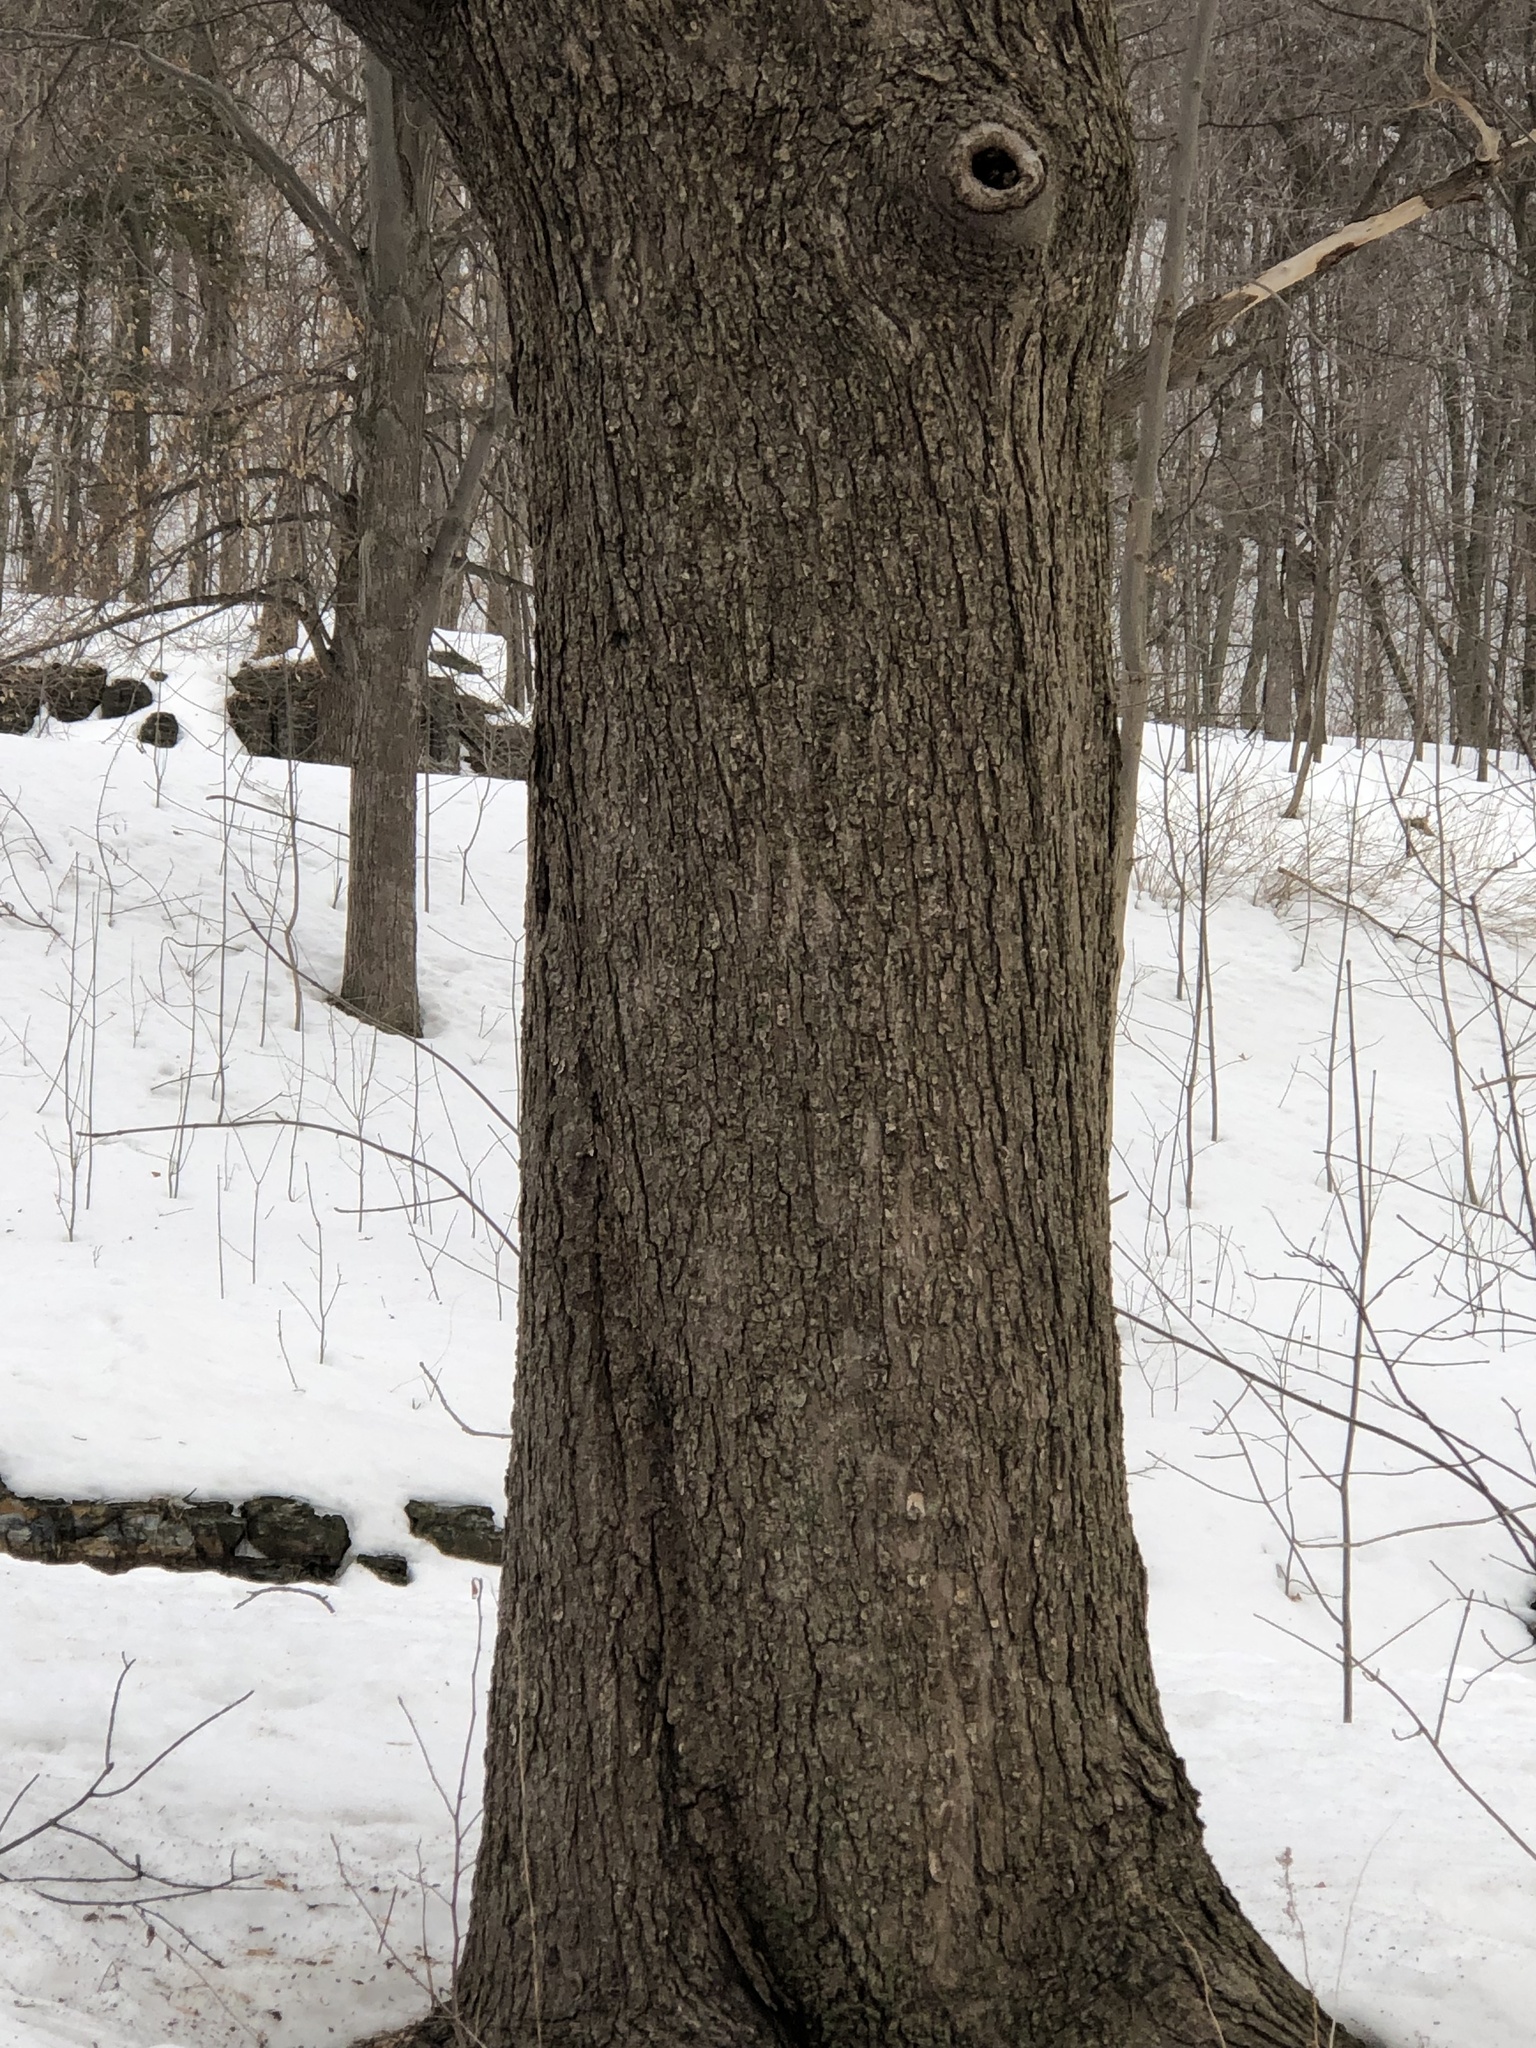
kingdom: Plantae
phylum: Tracheophyta
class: Magnoliopsida
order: Sapindales
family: Sapindaceae
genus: Acer
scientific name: Acer rubrum
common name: Red maple
